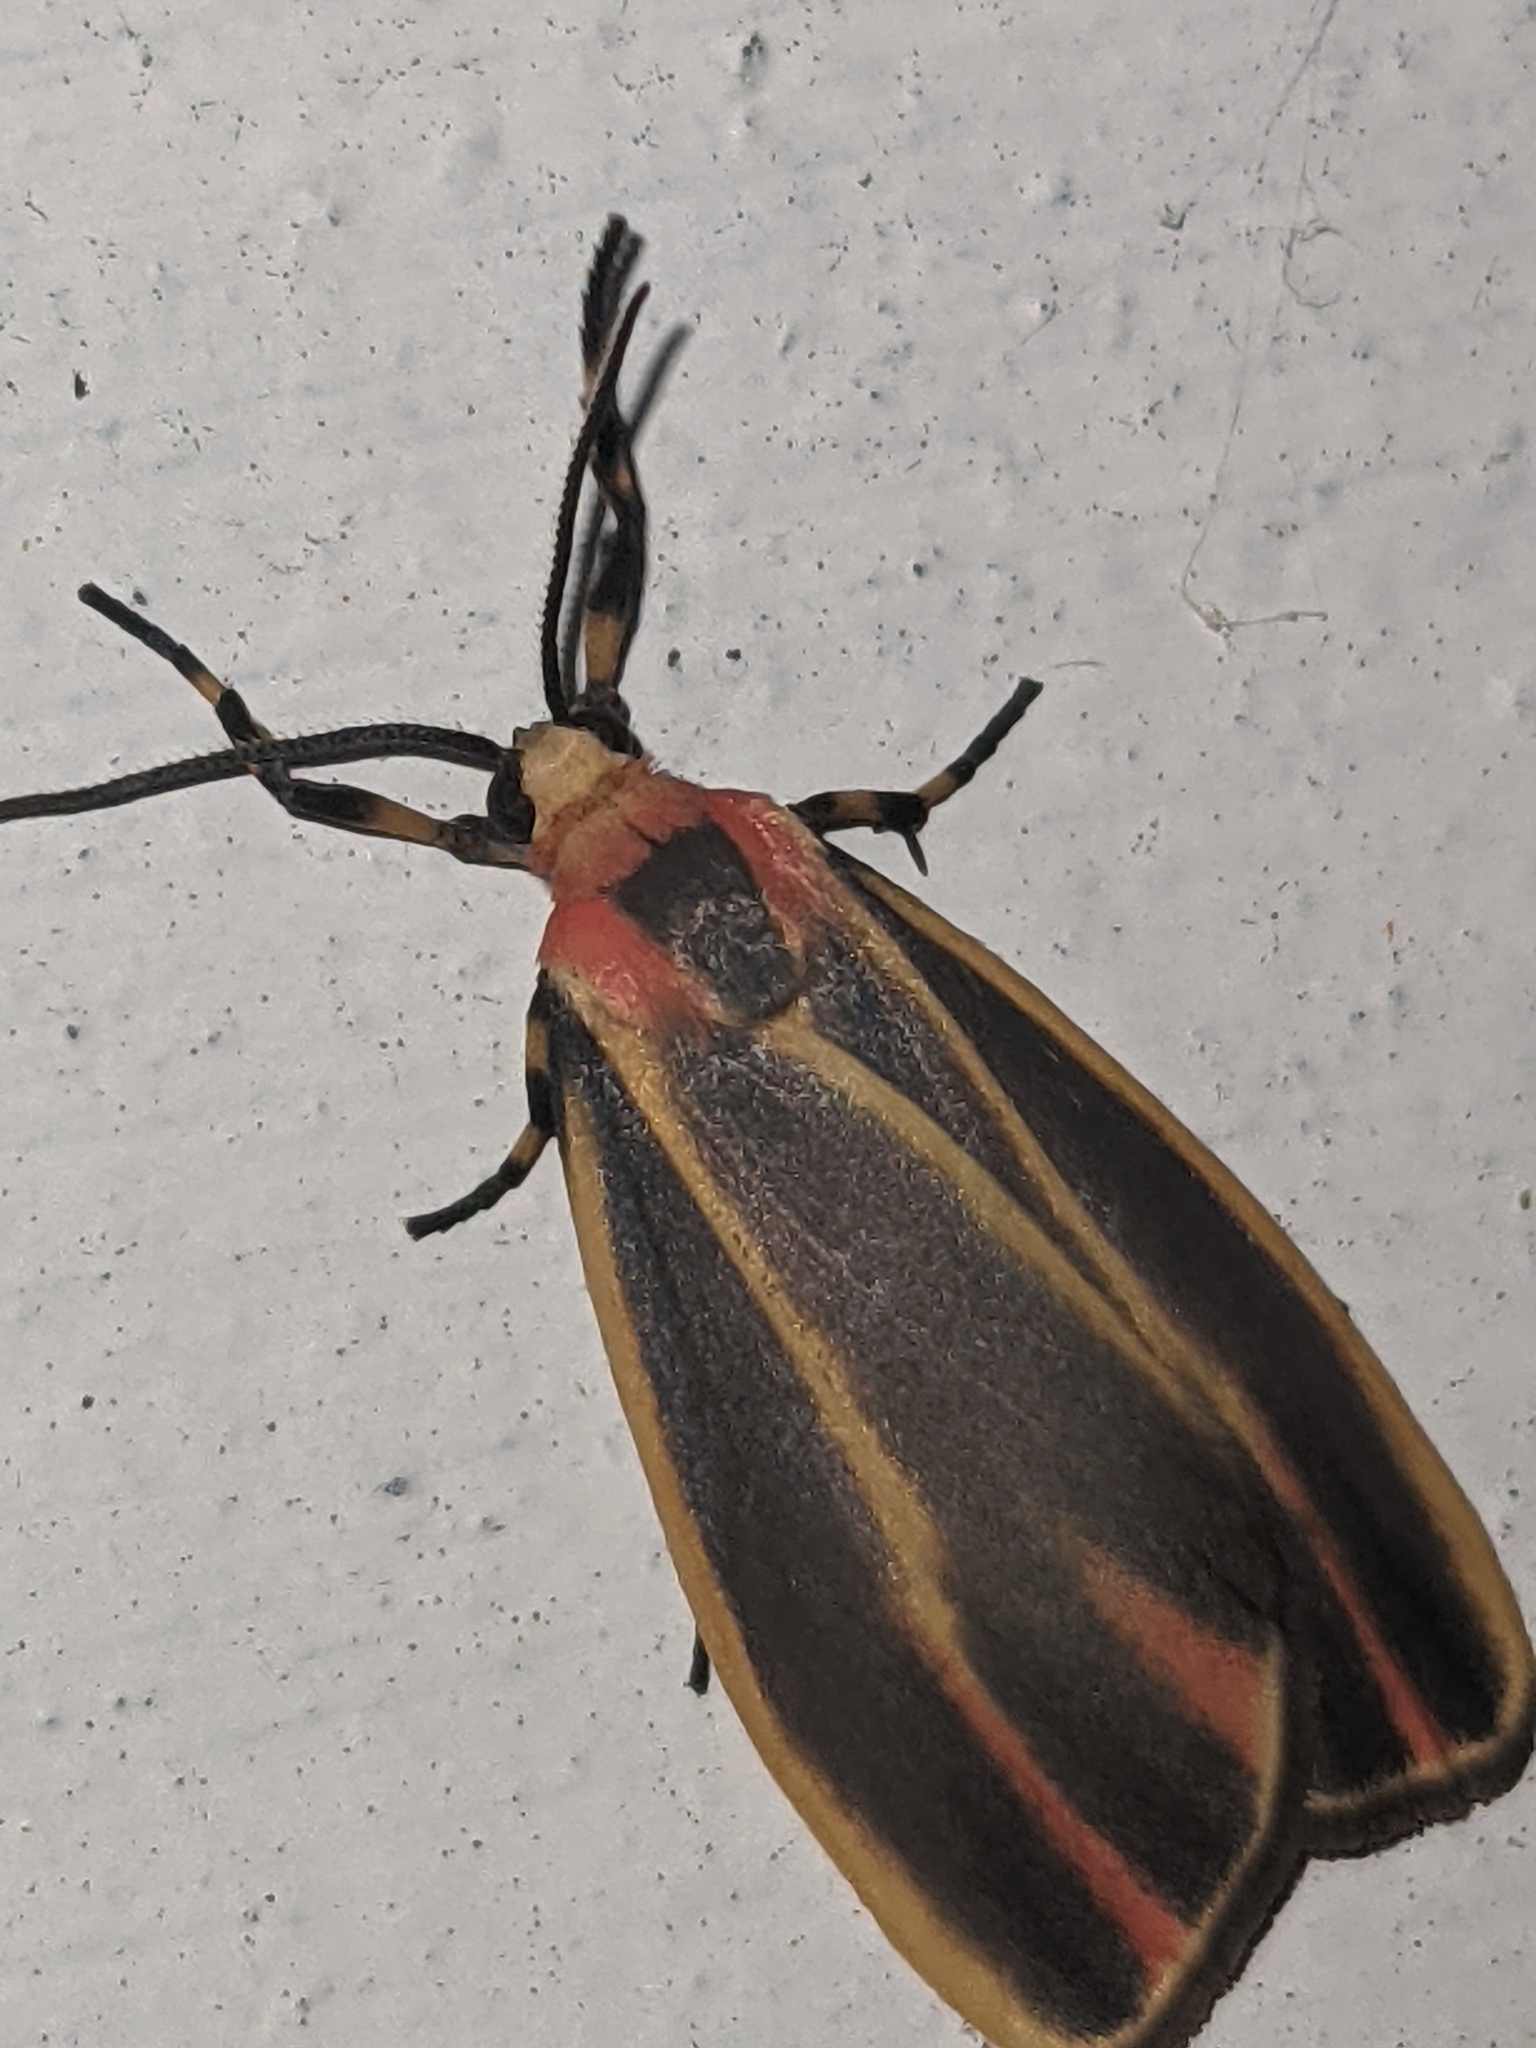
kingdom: Animalia
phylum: Arthropoda
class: Insecta
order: Lepidoptera
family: Erebidae
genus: Hypoprepia
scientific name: Hypoprepia fucosa
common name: Painted lichen moth
